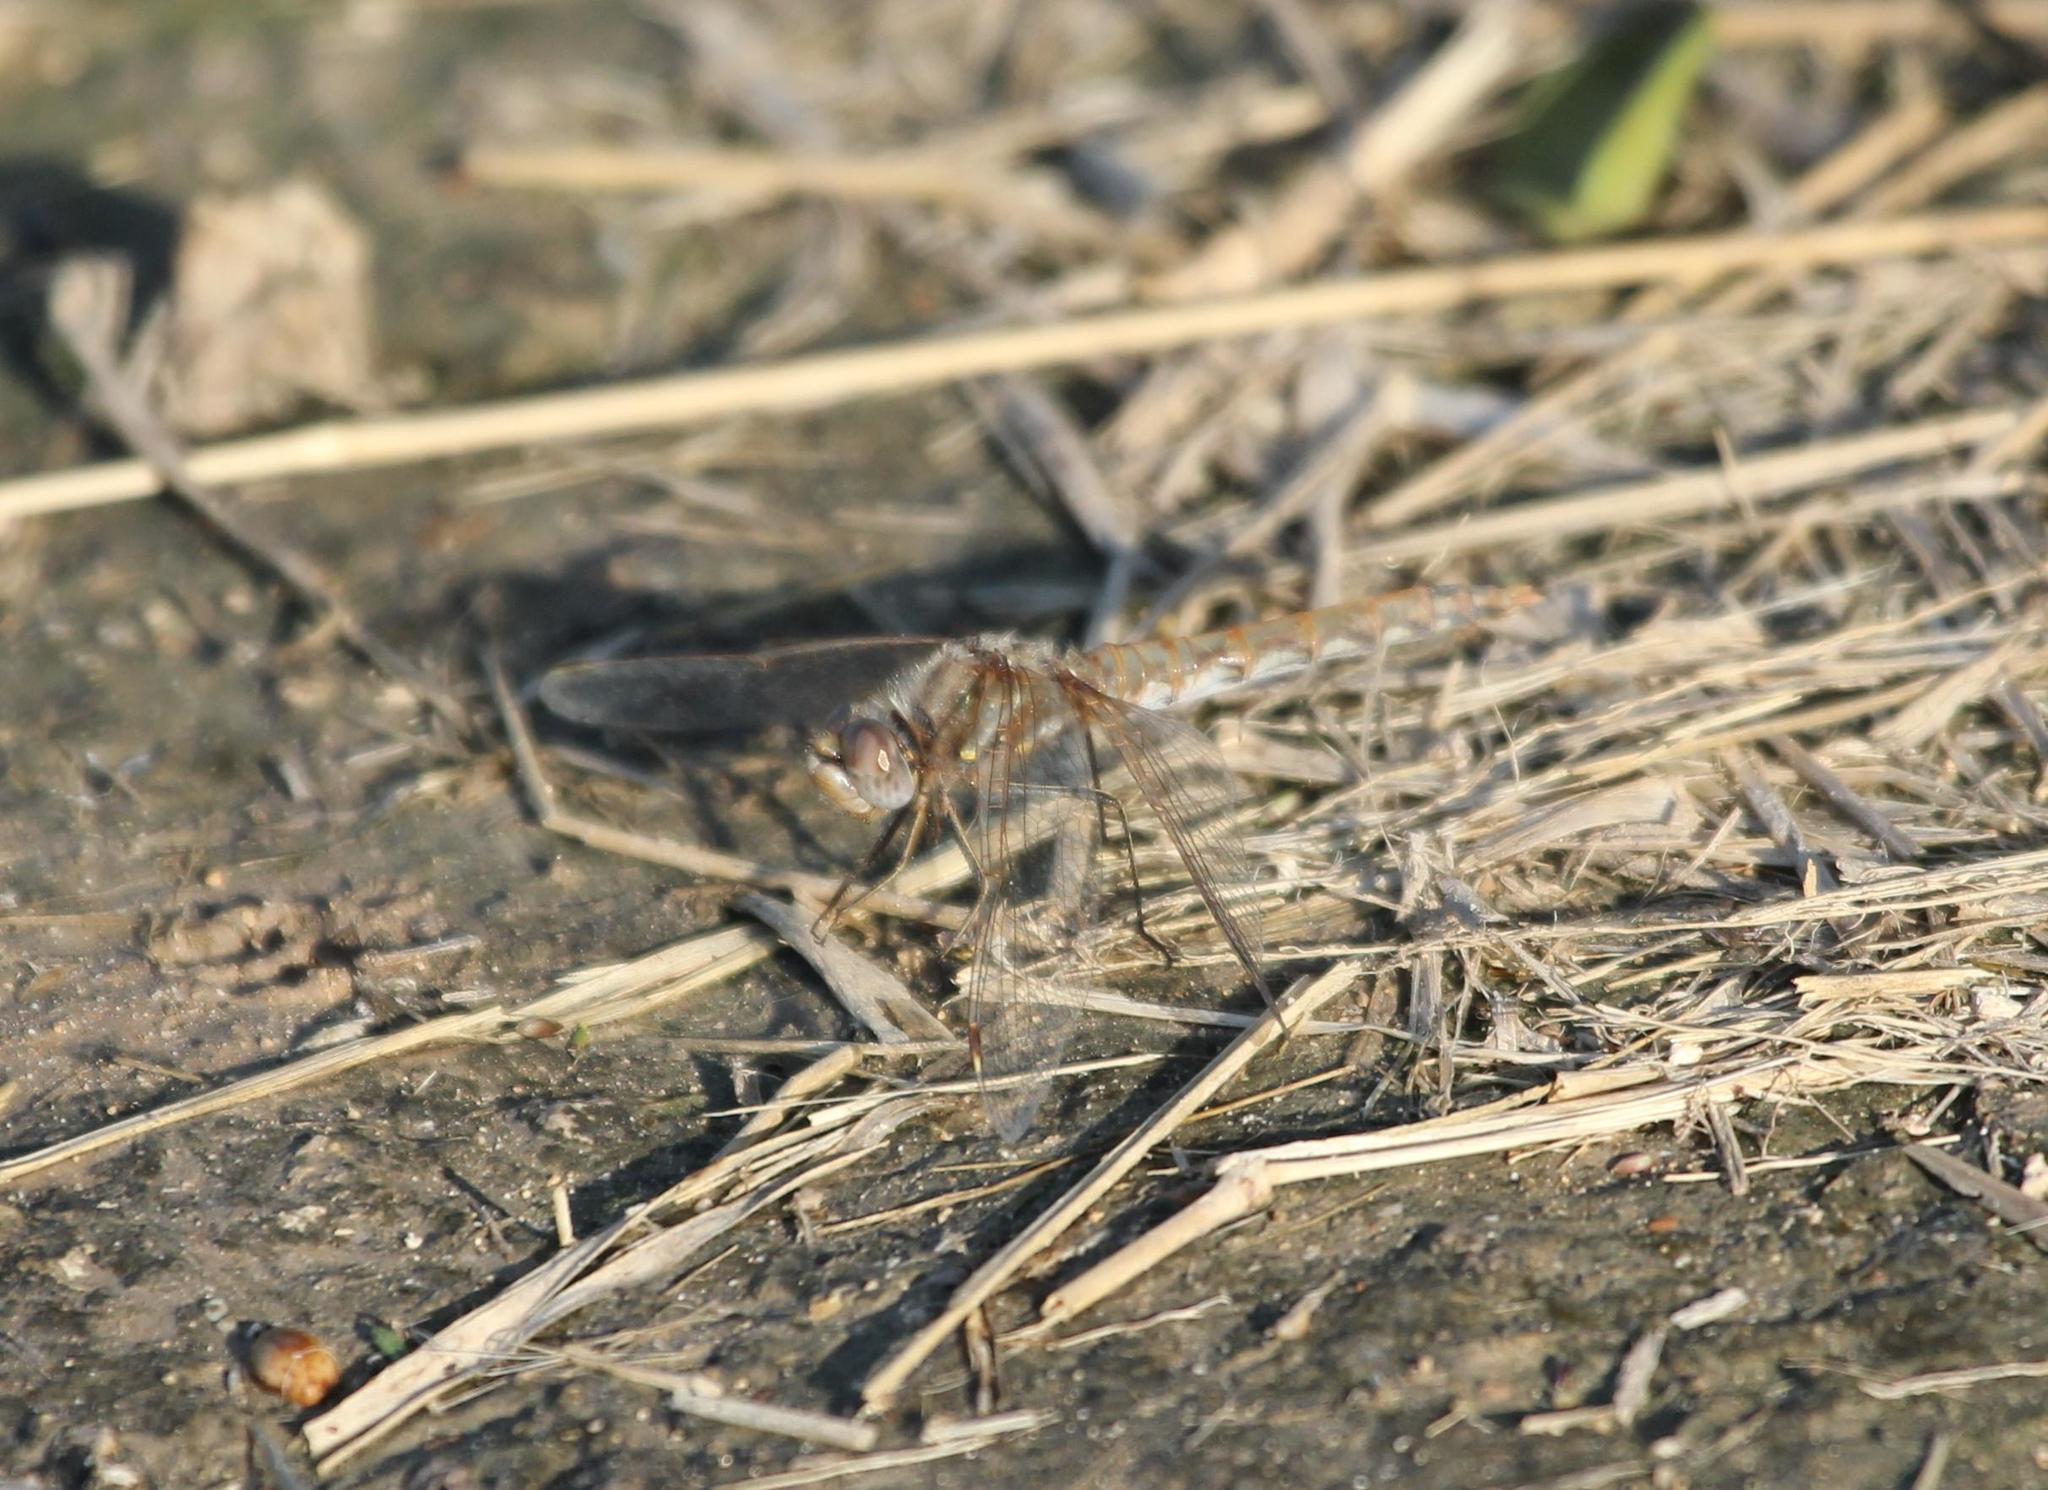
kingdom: Animalia
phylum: Arthropoda
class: Insecta
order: Odonata
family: Libellulidae
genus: Sympetrum
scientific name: Sympetrum corruptum
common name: Variegated meadowhawk
